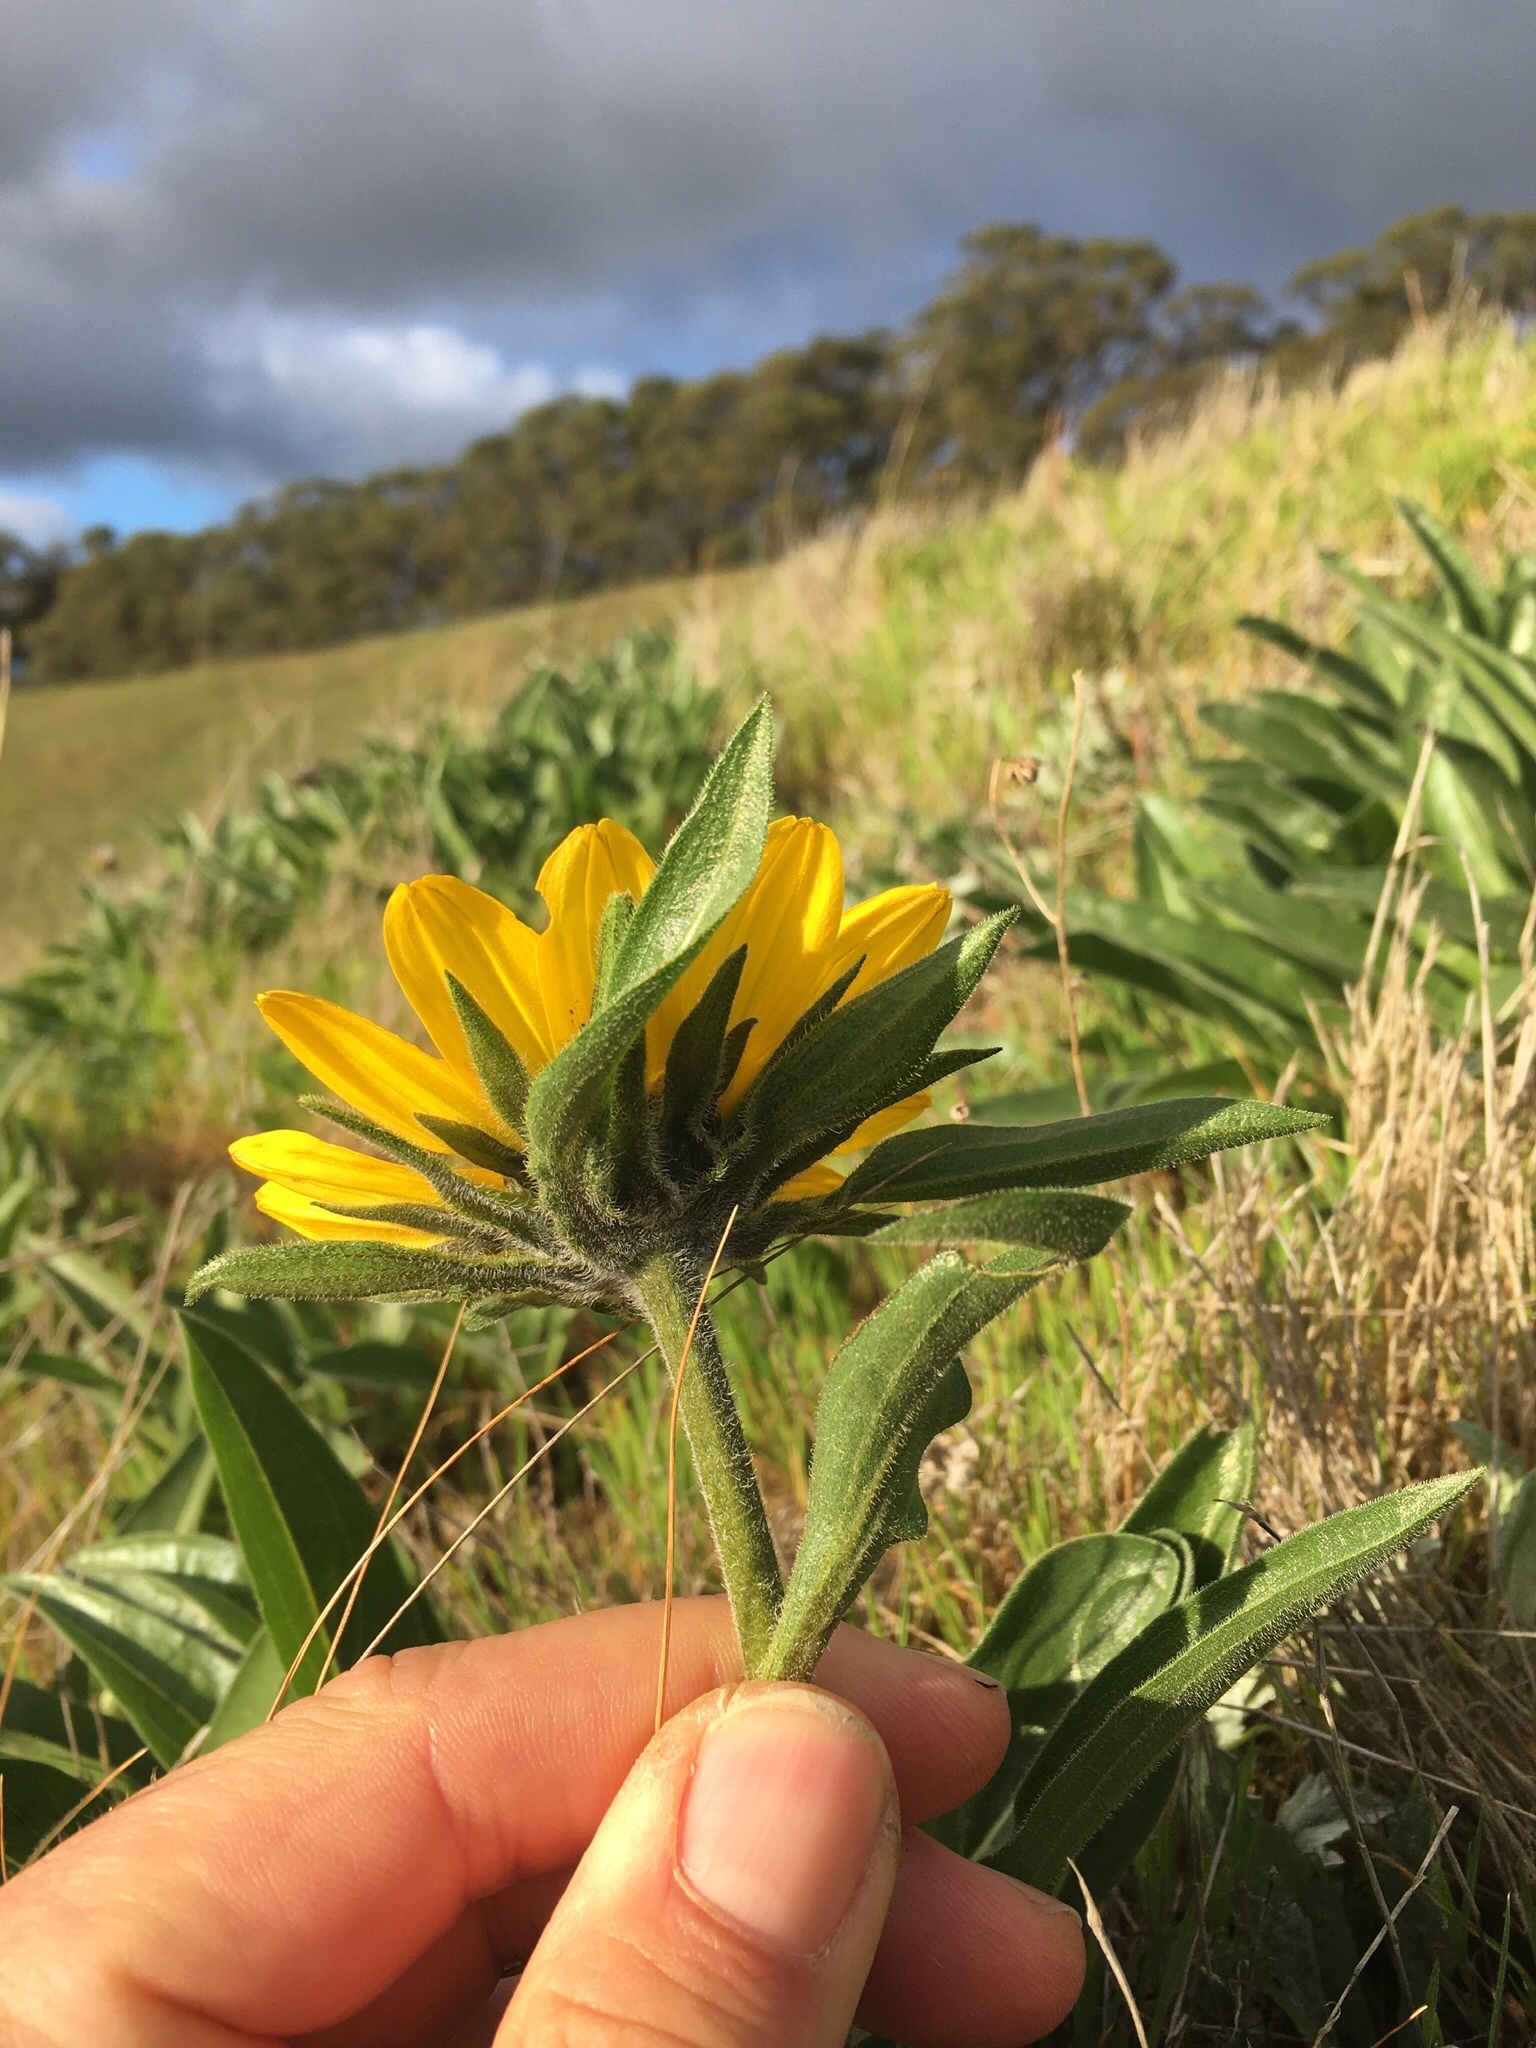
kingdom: Plantae
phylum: Tracheophyta
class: Magnoliopsida
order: Asterales
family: Asteraceae
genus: Helianthella
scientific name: Helianthella castanea
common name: Diablo helianthella
